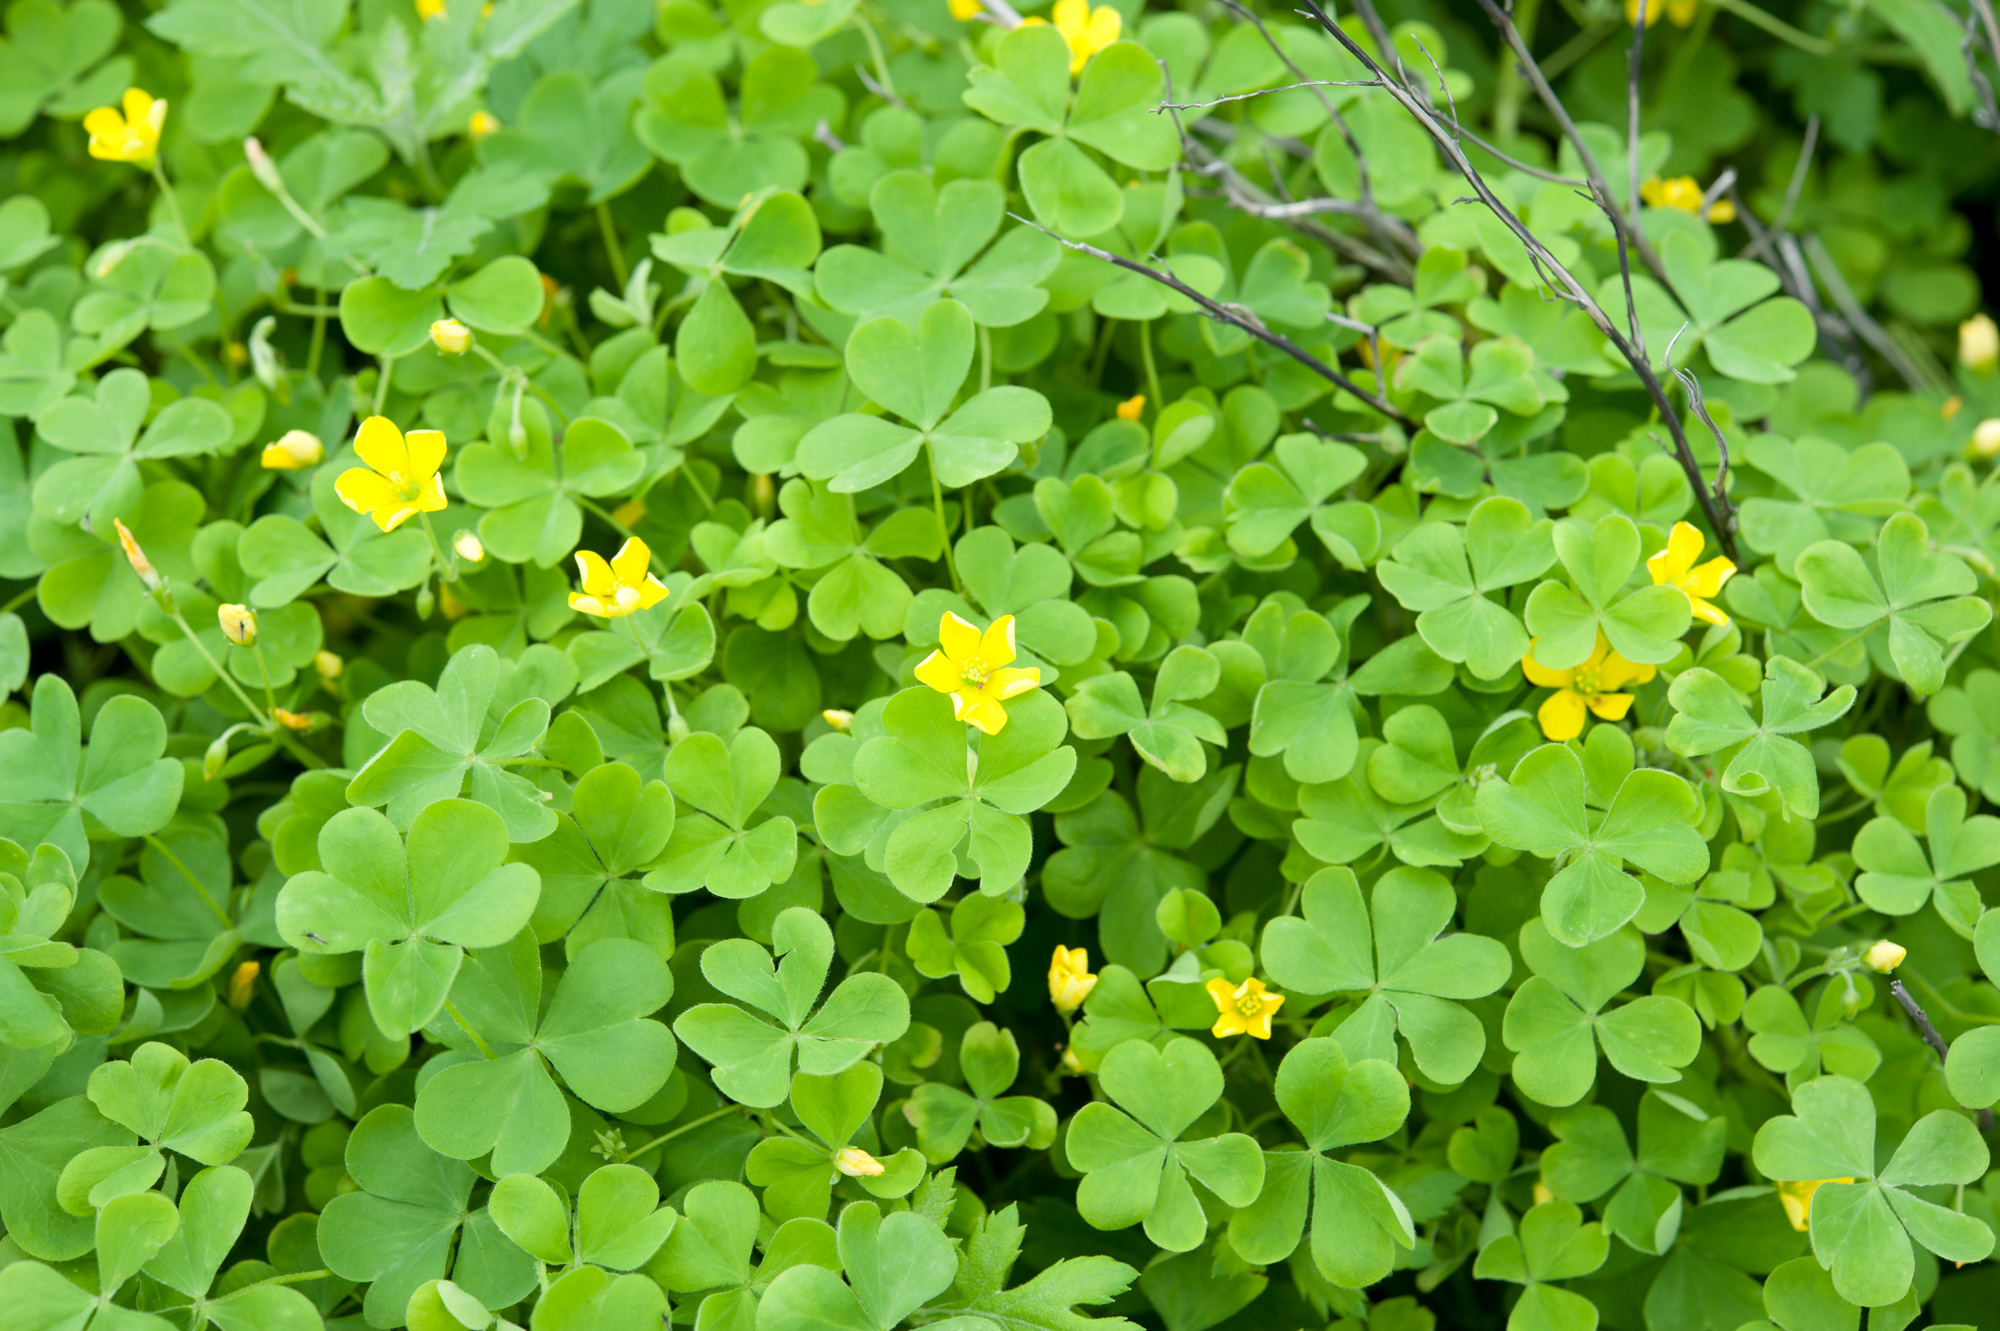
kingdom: Plantae
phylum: Tracheophyta
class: Magnoliopsida
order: Oxalidales
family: Oxalidaceae
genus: Oxalis
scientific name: Oxalis corniculata
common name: Procumbent yellow-sorrel
